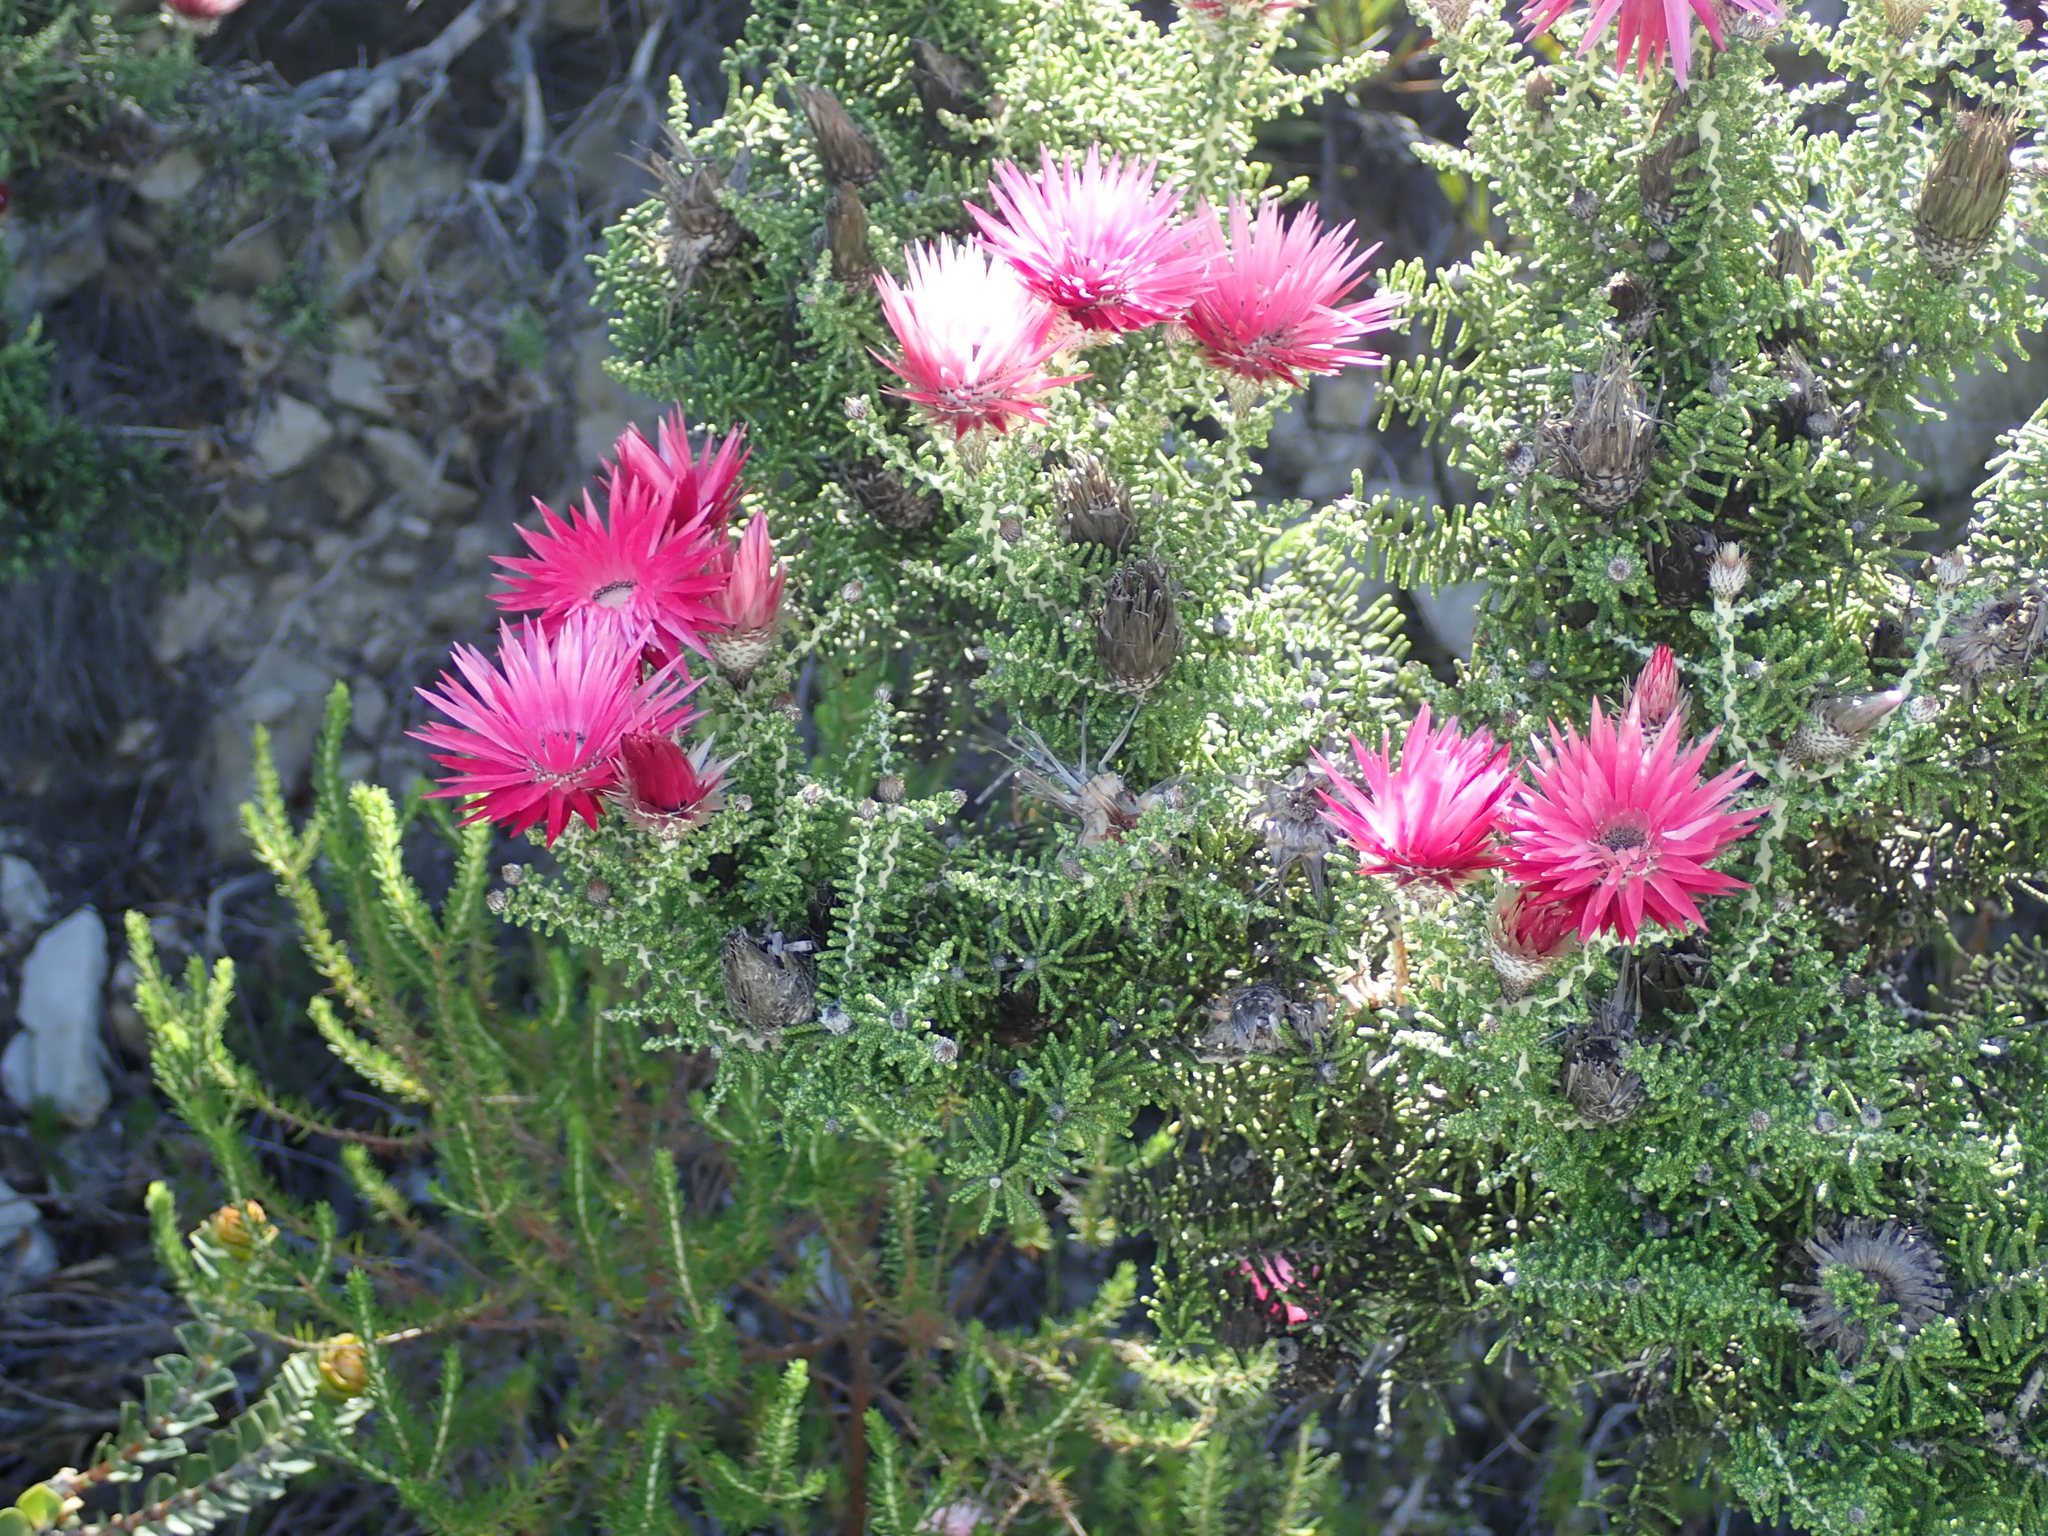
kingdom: Plantae
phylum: Tracheophyta
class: Magnoliopsida
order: Asterales
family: Asteraceae
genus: Phaenocoma
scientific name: Phaenocoma prolifera
